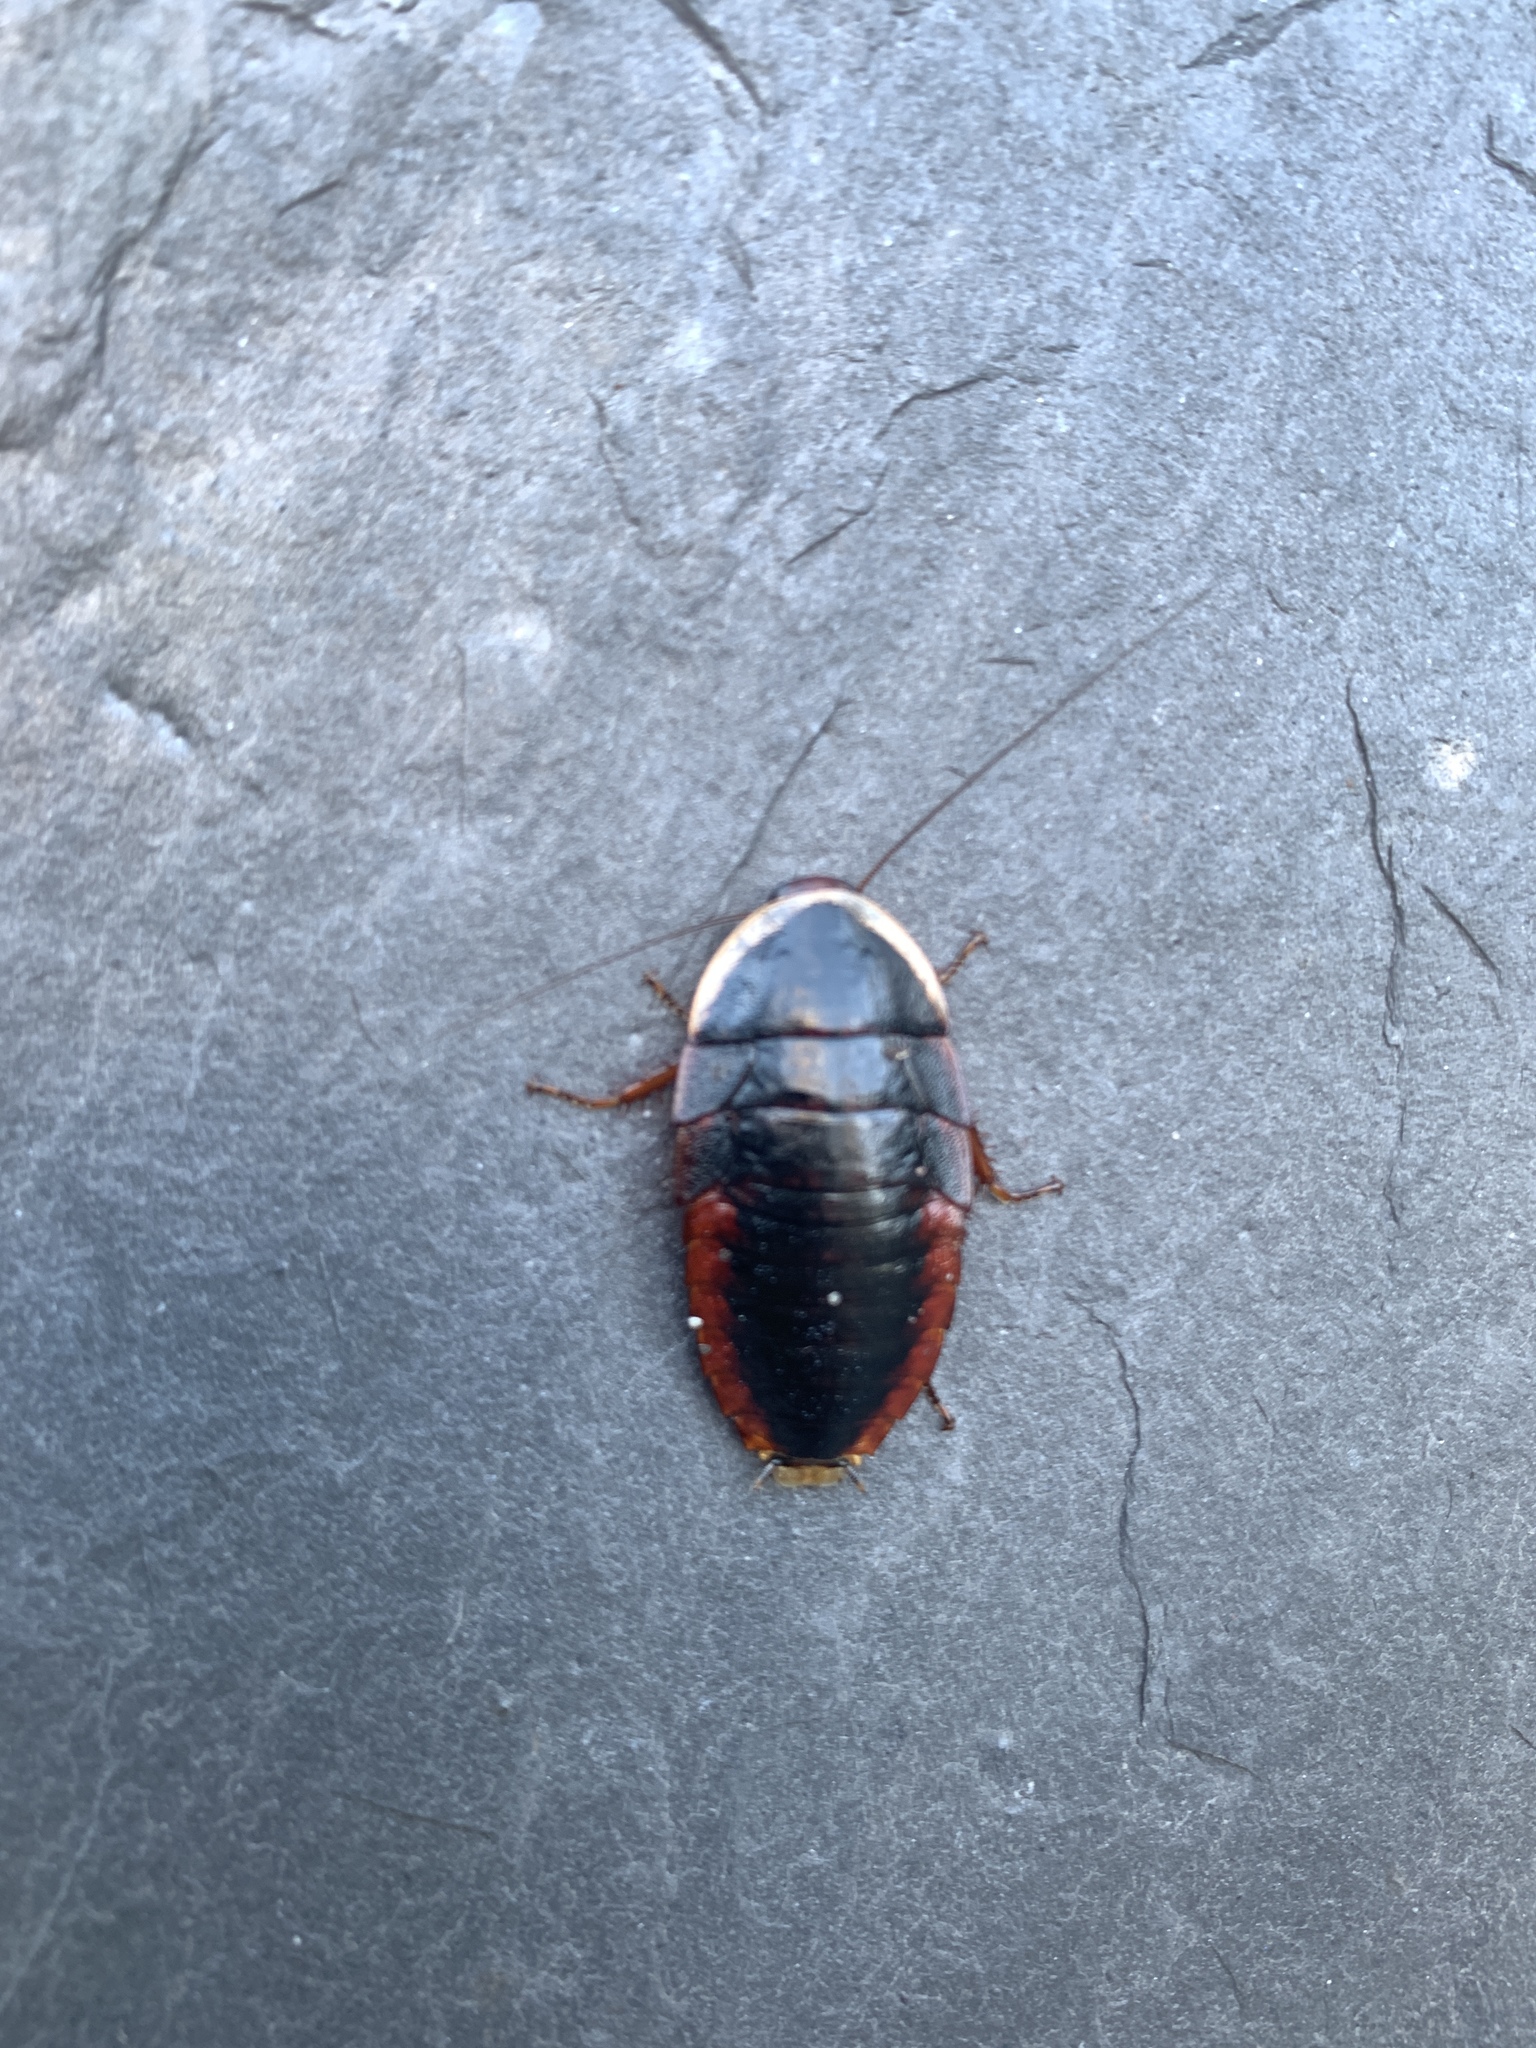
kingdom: Animalia
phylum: Arthropoda
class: Insecta
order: Blattodea
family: Blaberidae
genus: Opisthoplatia
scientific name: Opisthoplatia orientalis
